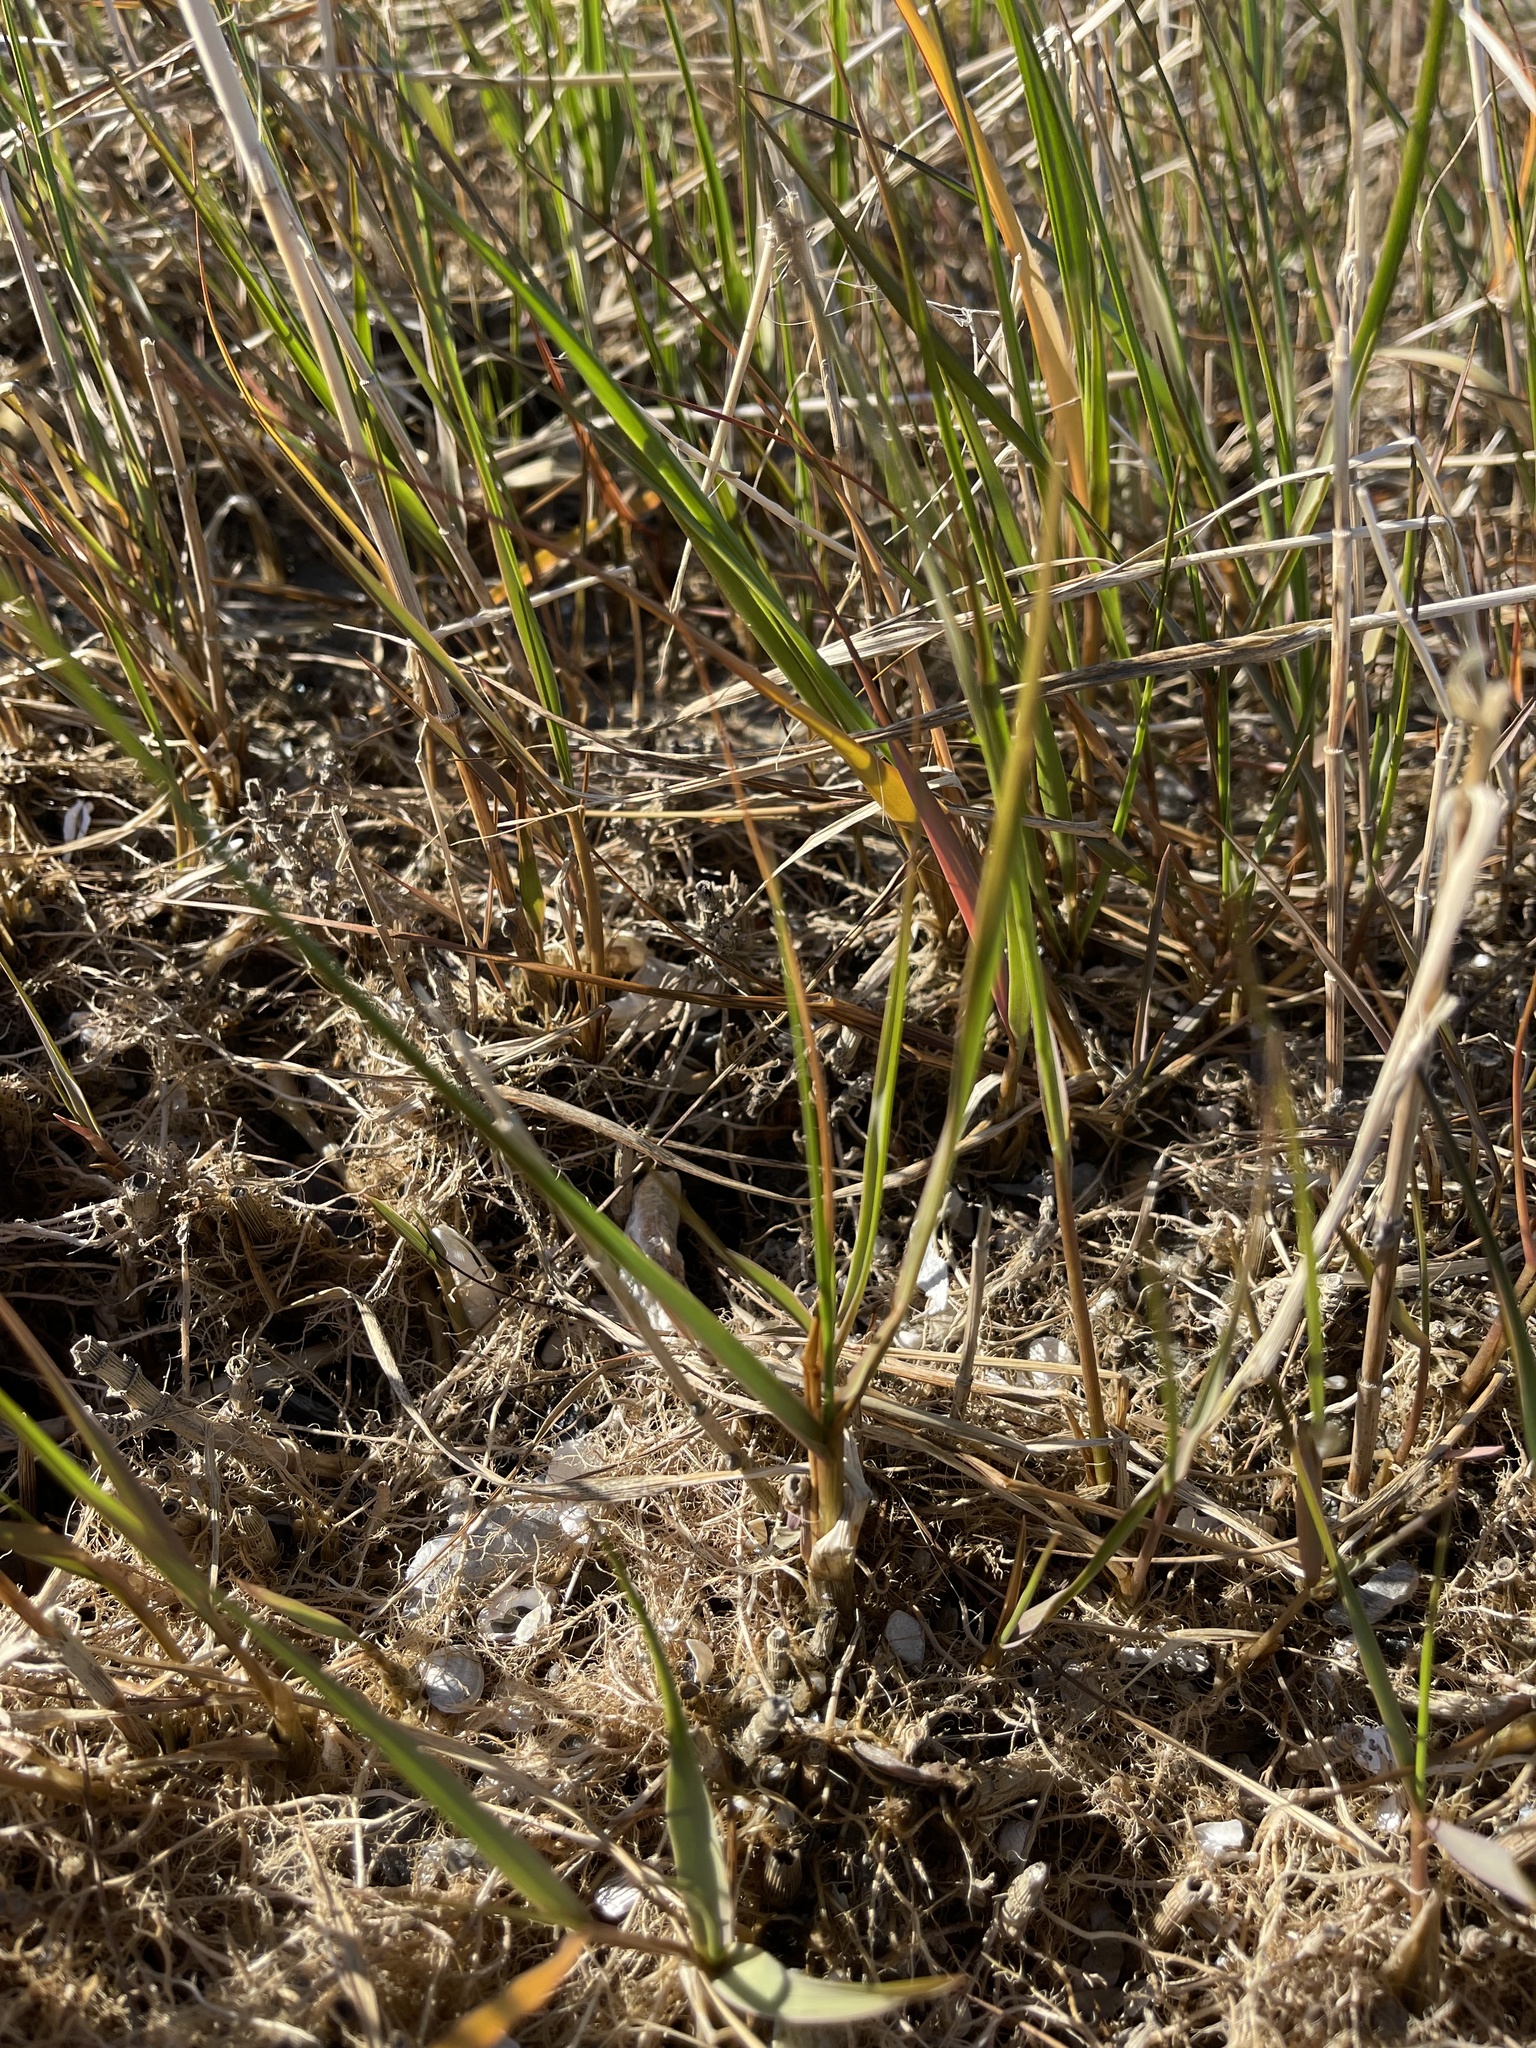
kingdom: Plantae
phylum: Tracheophyta
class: Liliopsida
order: Poales
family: Poaceae
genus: Sporobolus
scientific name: Sporobolus alterniflorus
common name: Atlantic cordgrass
